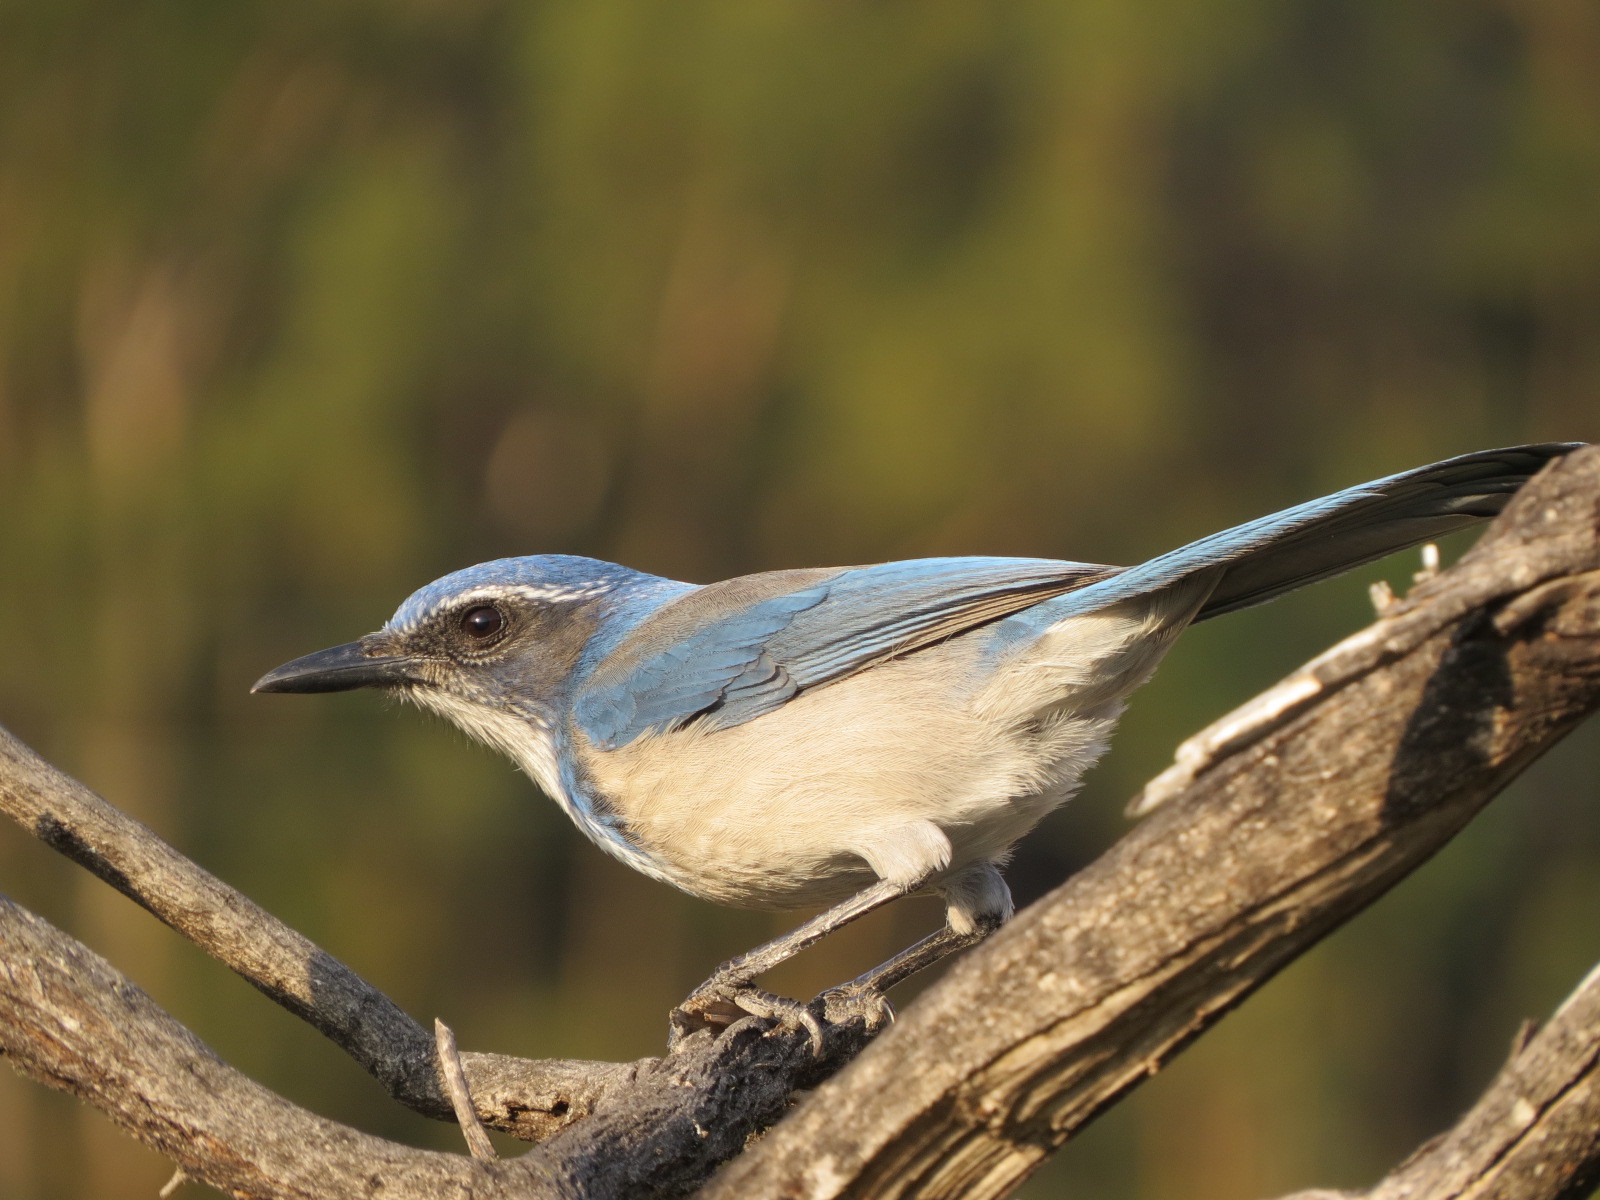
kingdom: Animalia
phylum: Chordata
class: Aves
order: Passeriformes
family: Corvidae
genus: Aphelocoma
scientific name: Aphelocoma californica
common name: California scrub-jay
